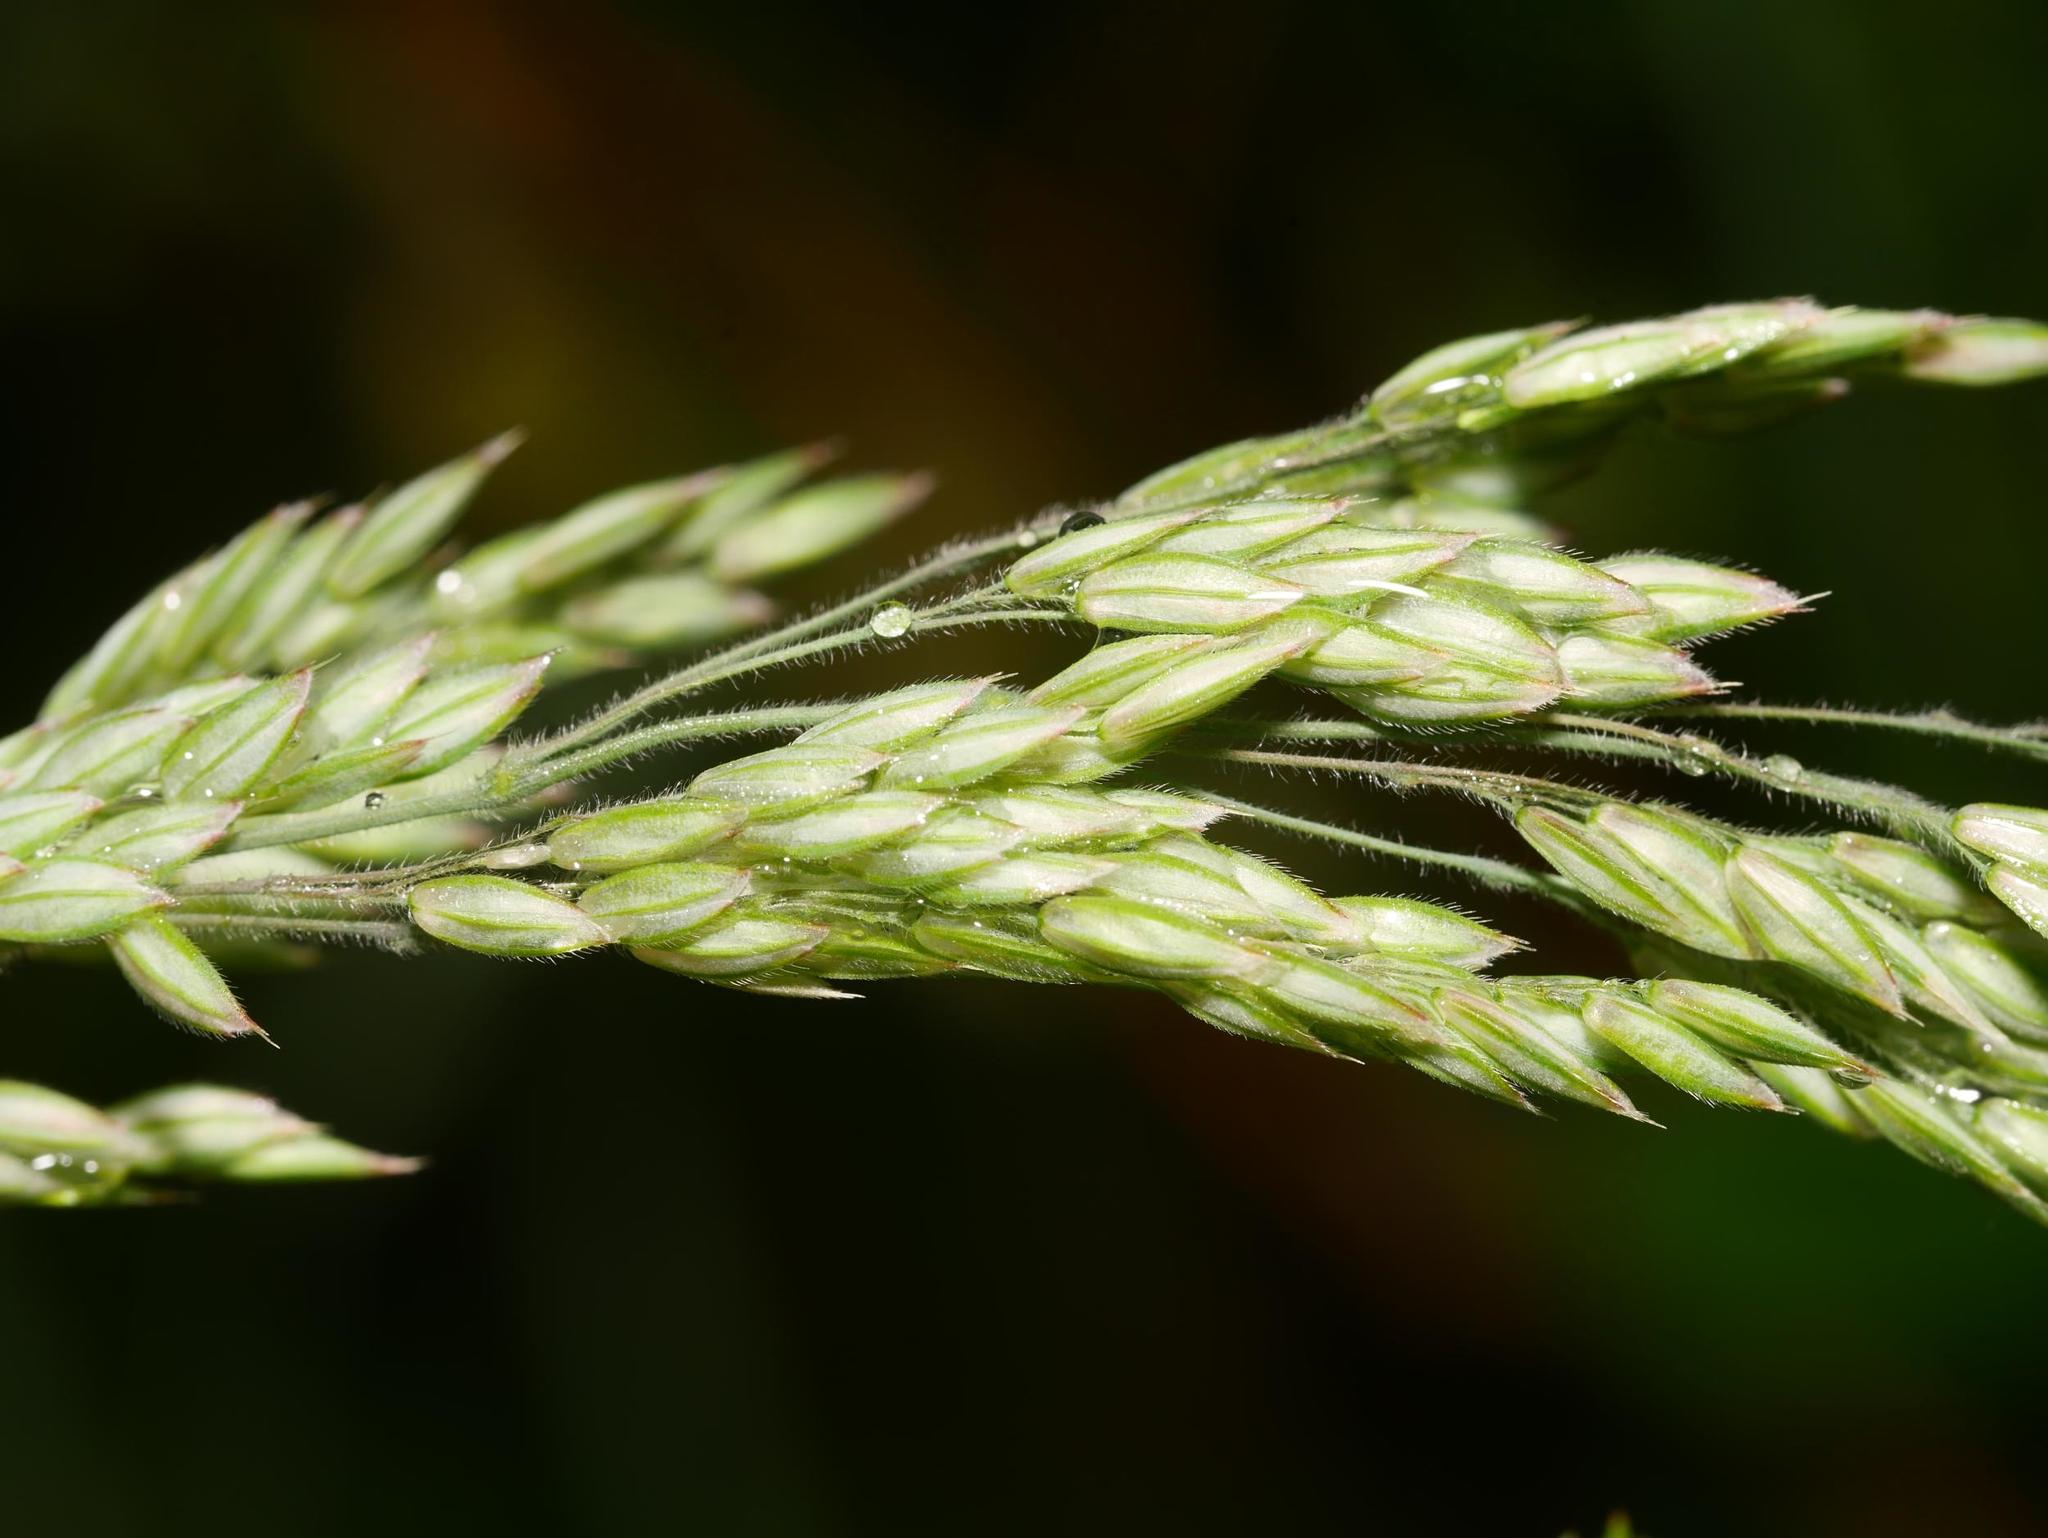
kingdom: Plantae
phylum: Tracheophyta
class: Liliopsida
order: Poales
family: Poaceae
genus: Holcus
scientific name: Holcus lanatus
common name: Yorkshire-fog
